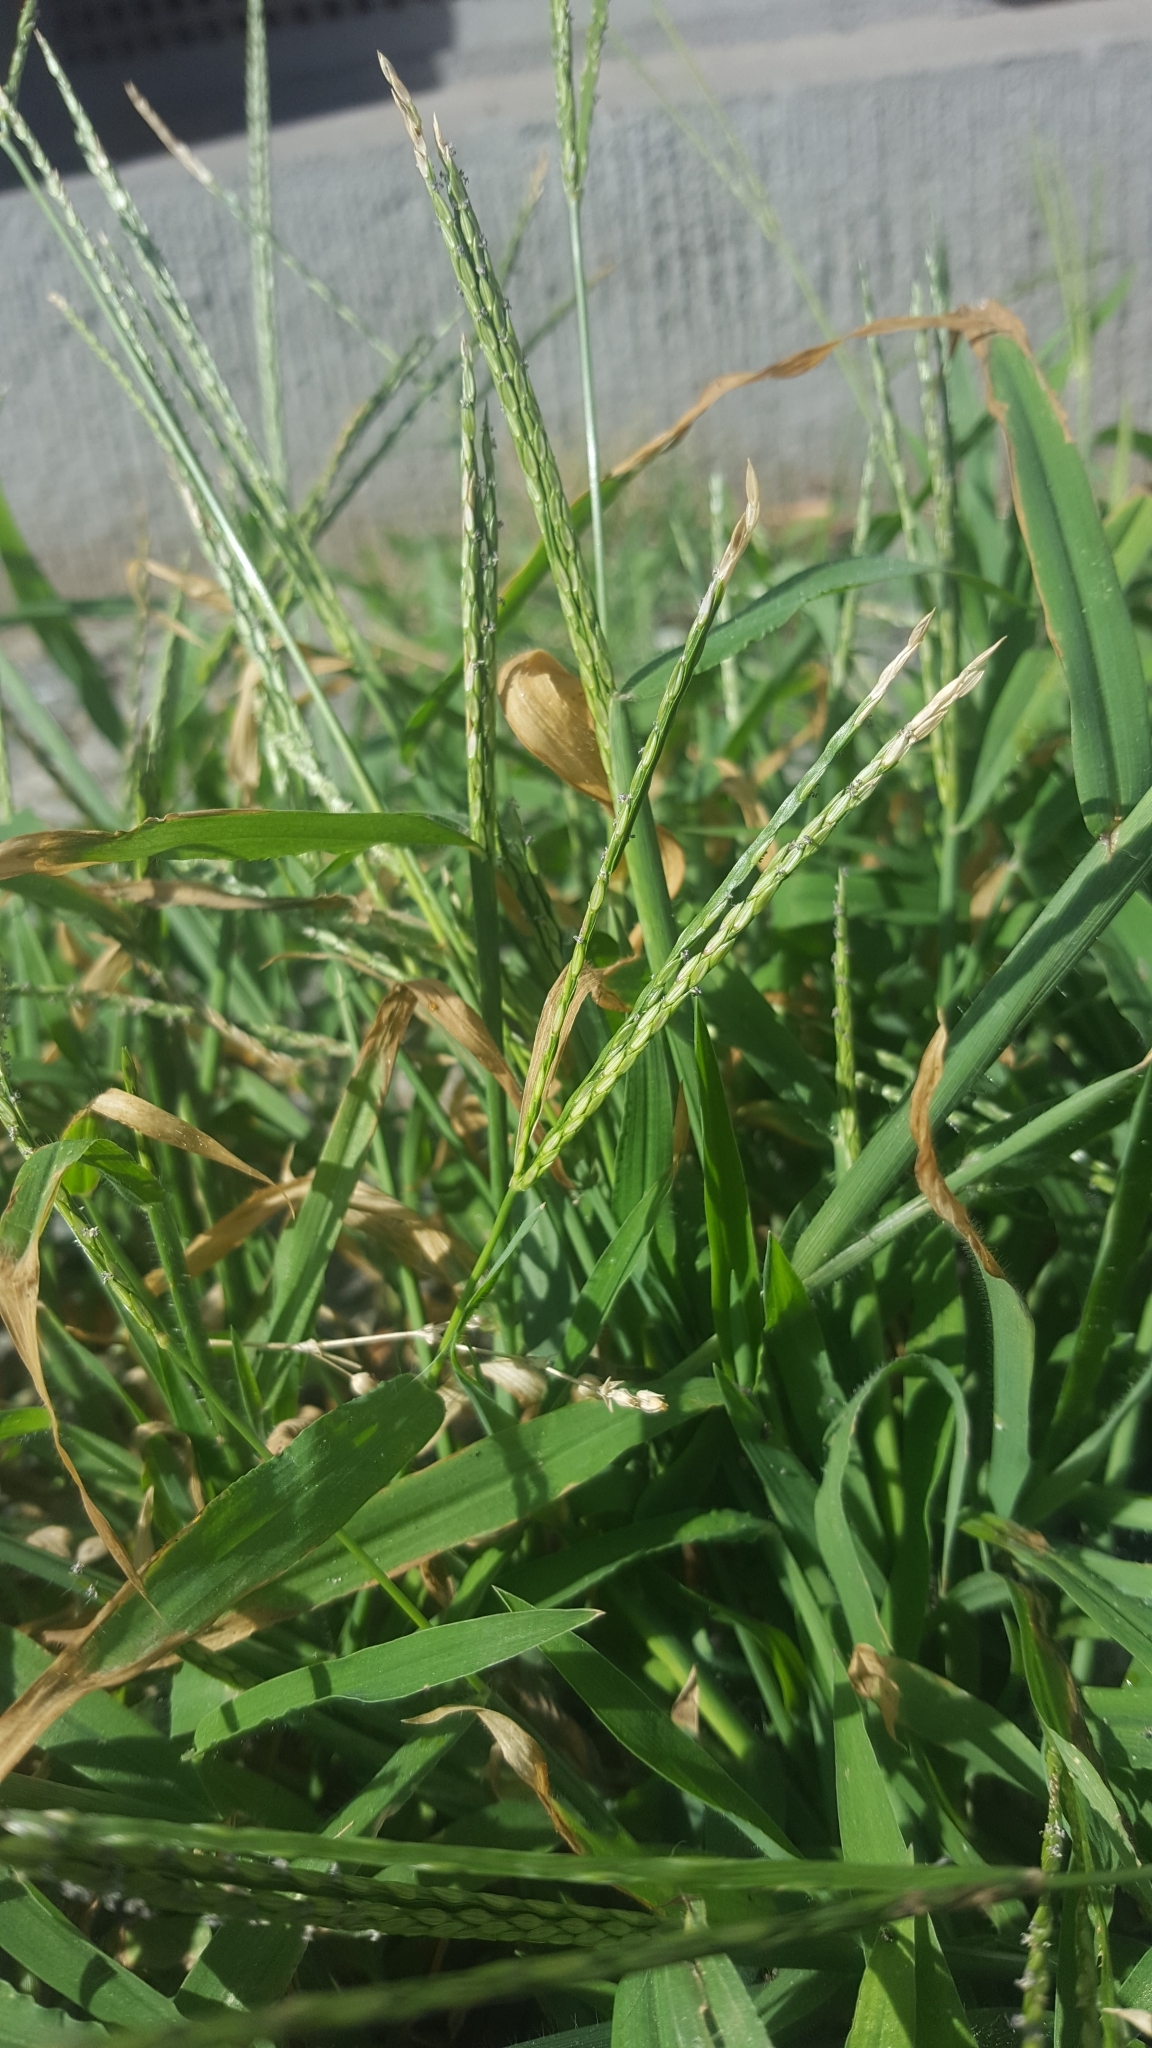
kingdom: Plantae
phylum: Tracheophyta
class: Liliopsida
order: Poales
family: Poaceae
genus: Digitaria
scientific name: Digitaria sanguinalis
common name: Hairy crabgrass
